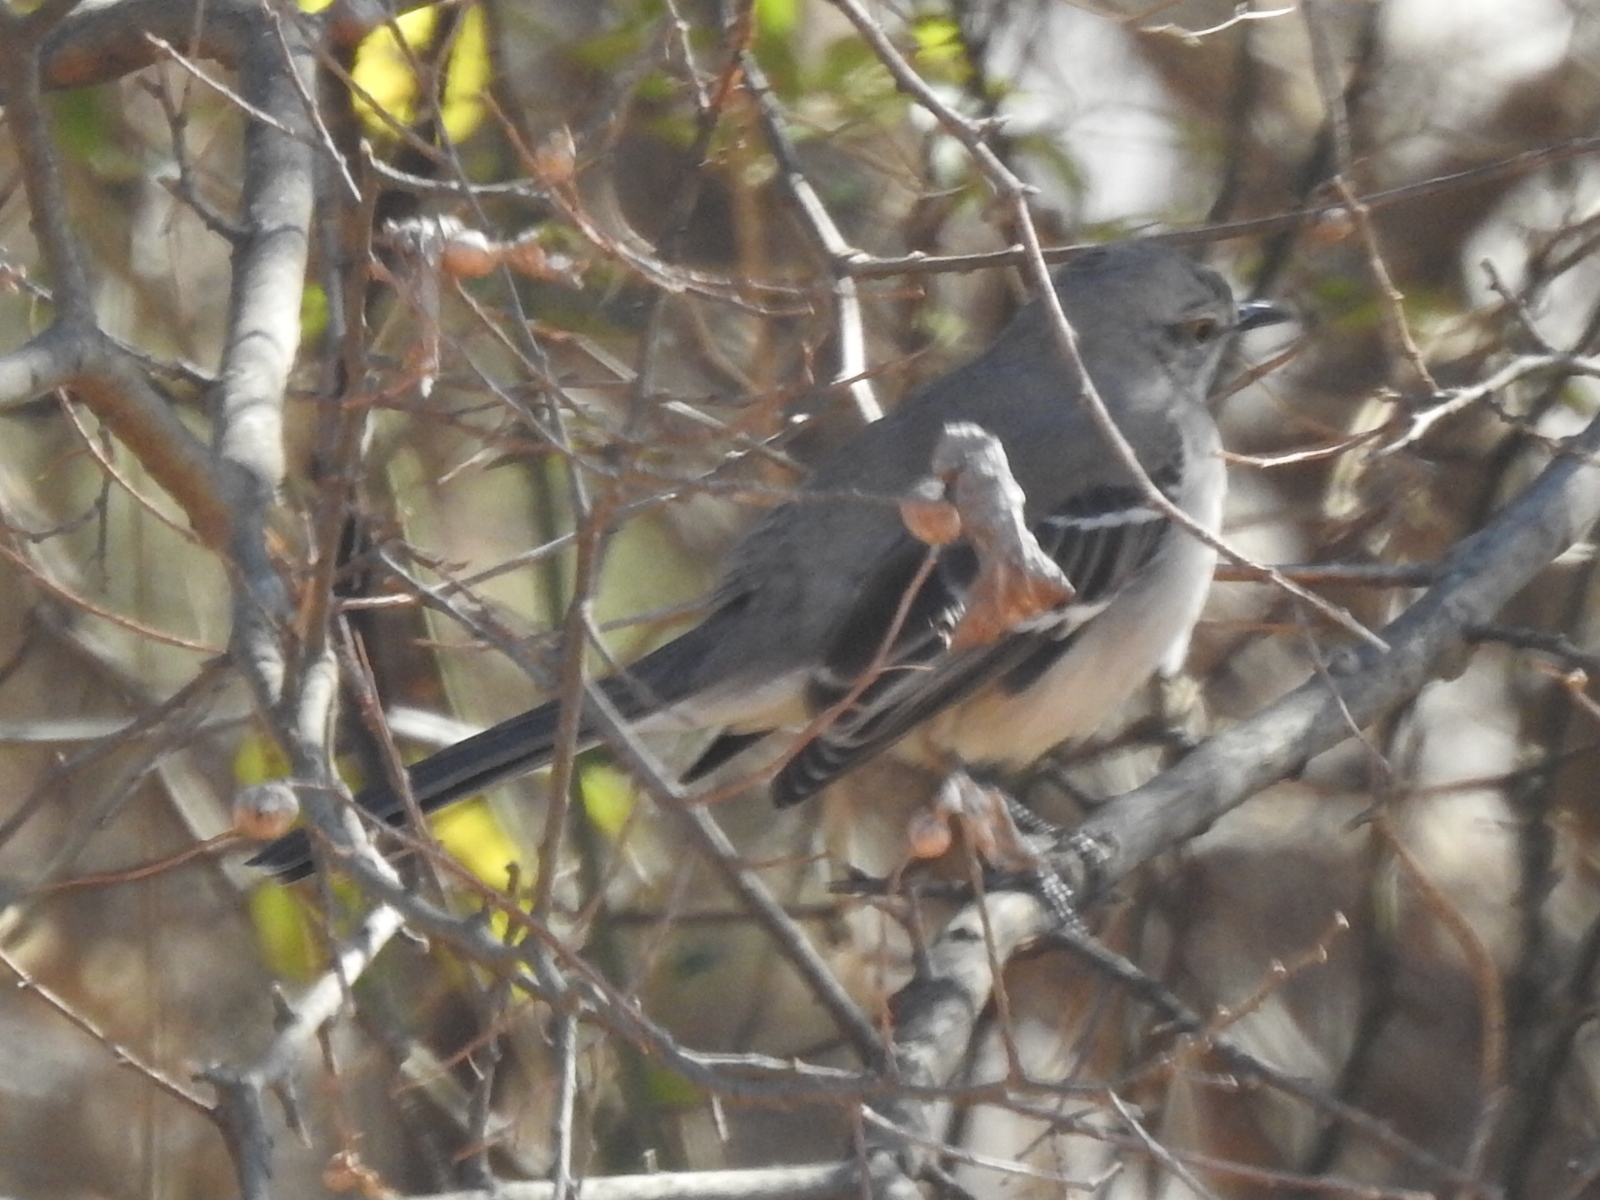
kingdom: Animalia
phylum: Chordata
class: Aves
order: Passeriformes
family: Mimidae
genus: Mimus
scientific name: Mimus polyglottos
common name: Northern mockingbird
